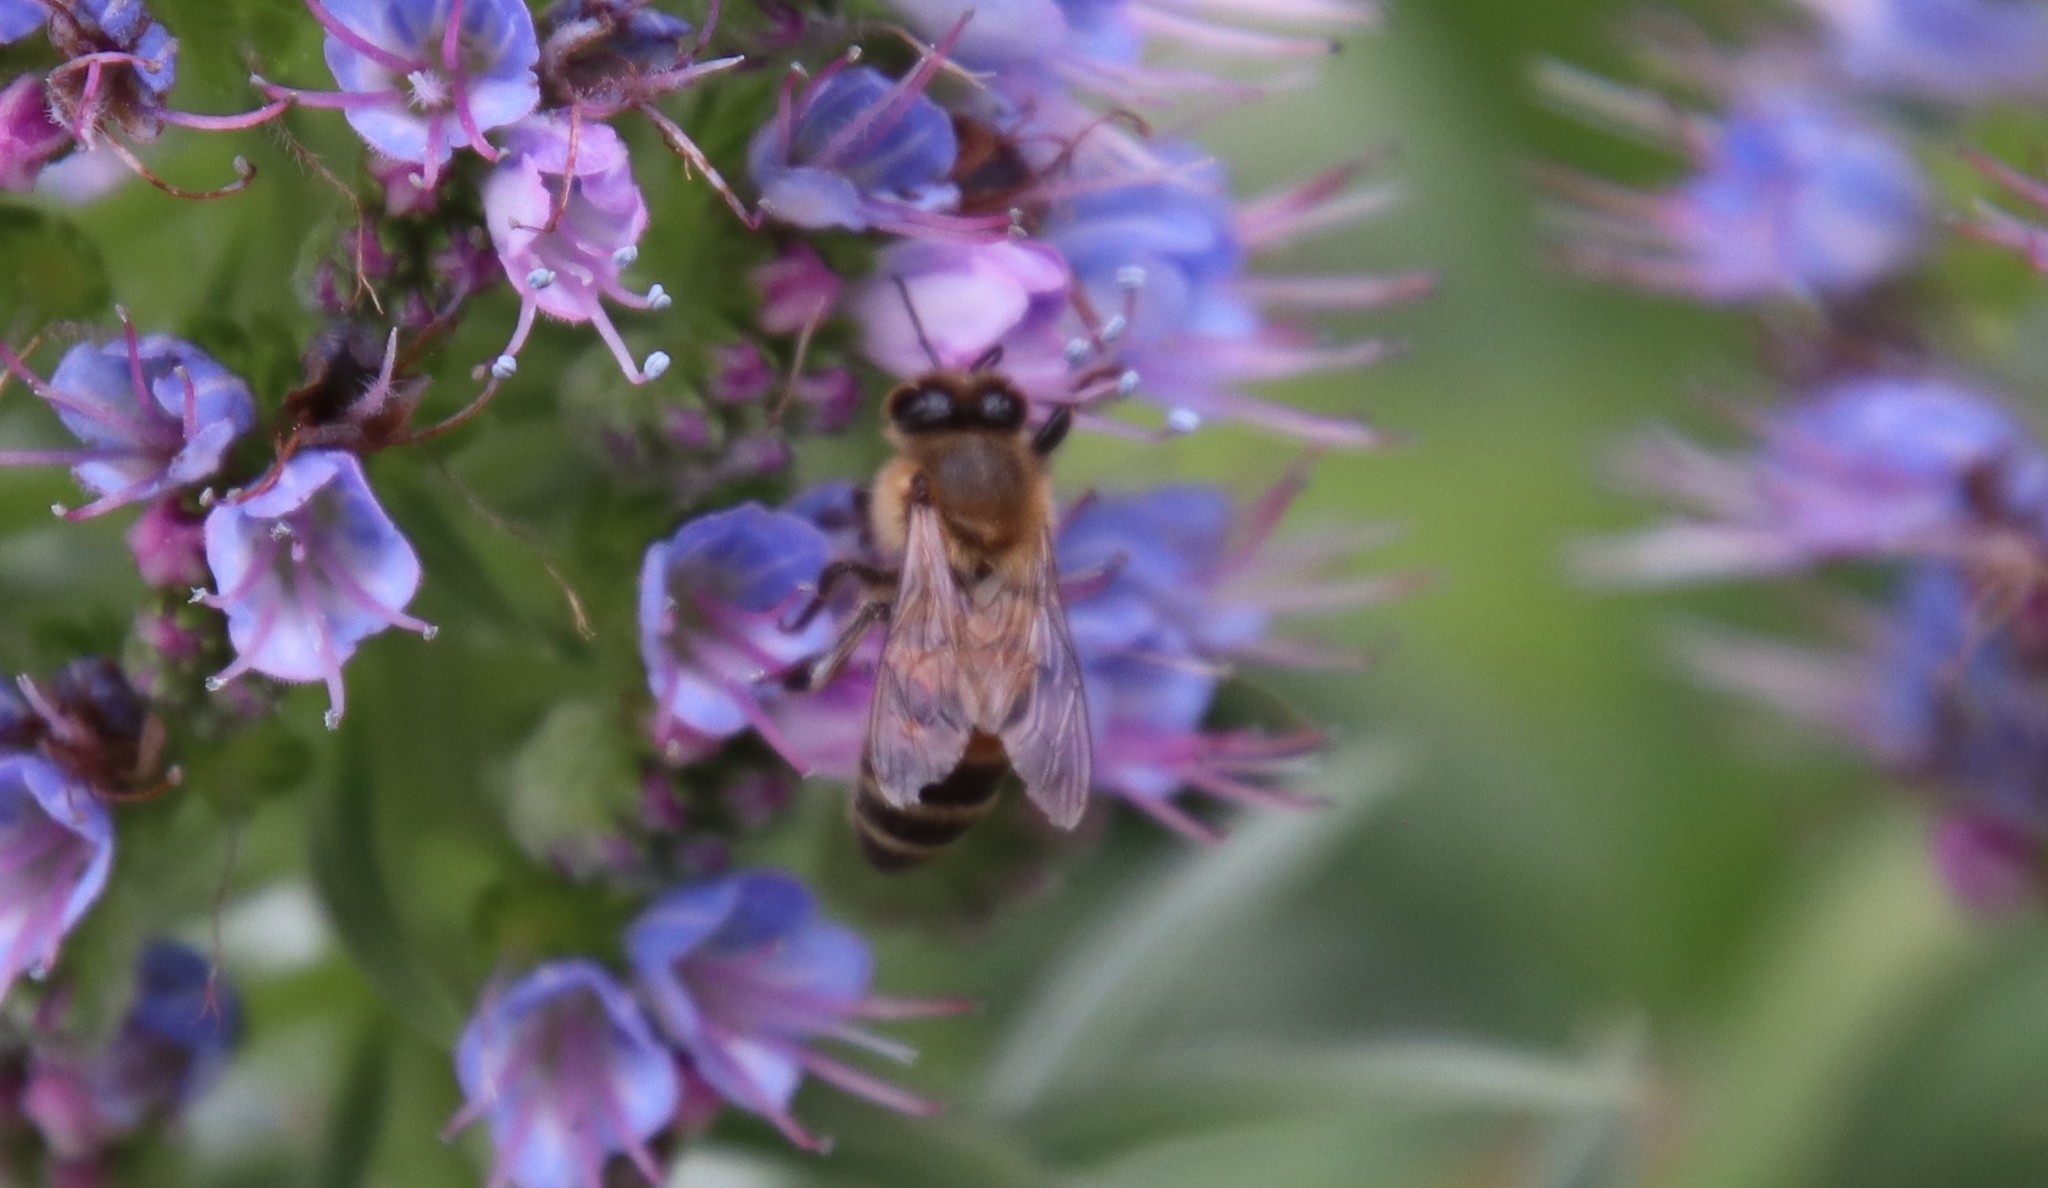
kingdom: Animalia
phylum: Arthropoda
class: Insecta
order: Hymenoptera
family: Apidae
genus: Apis
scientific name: Apis mellifera
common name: Honey bee
